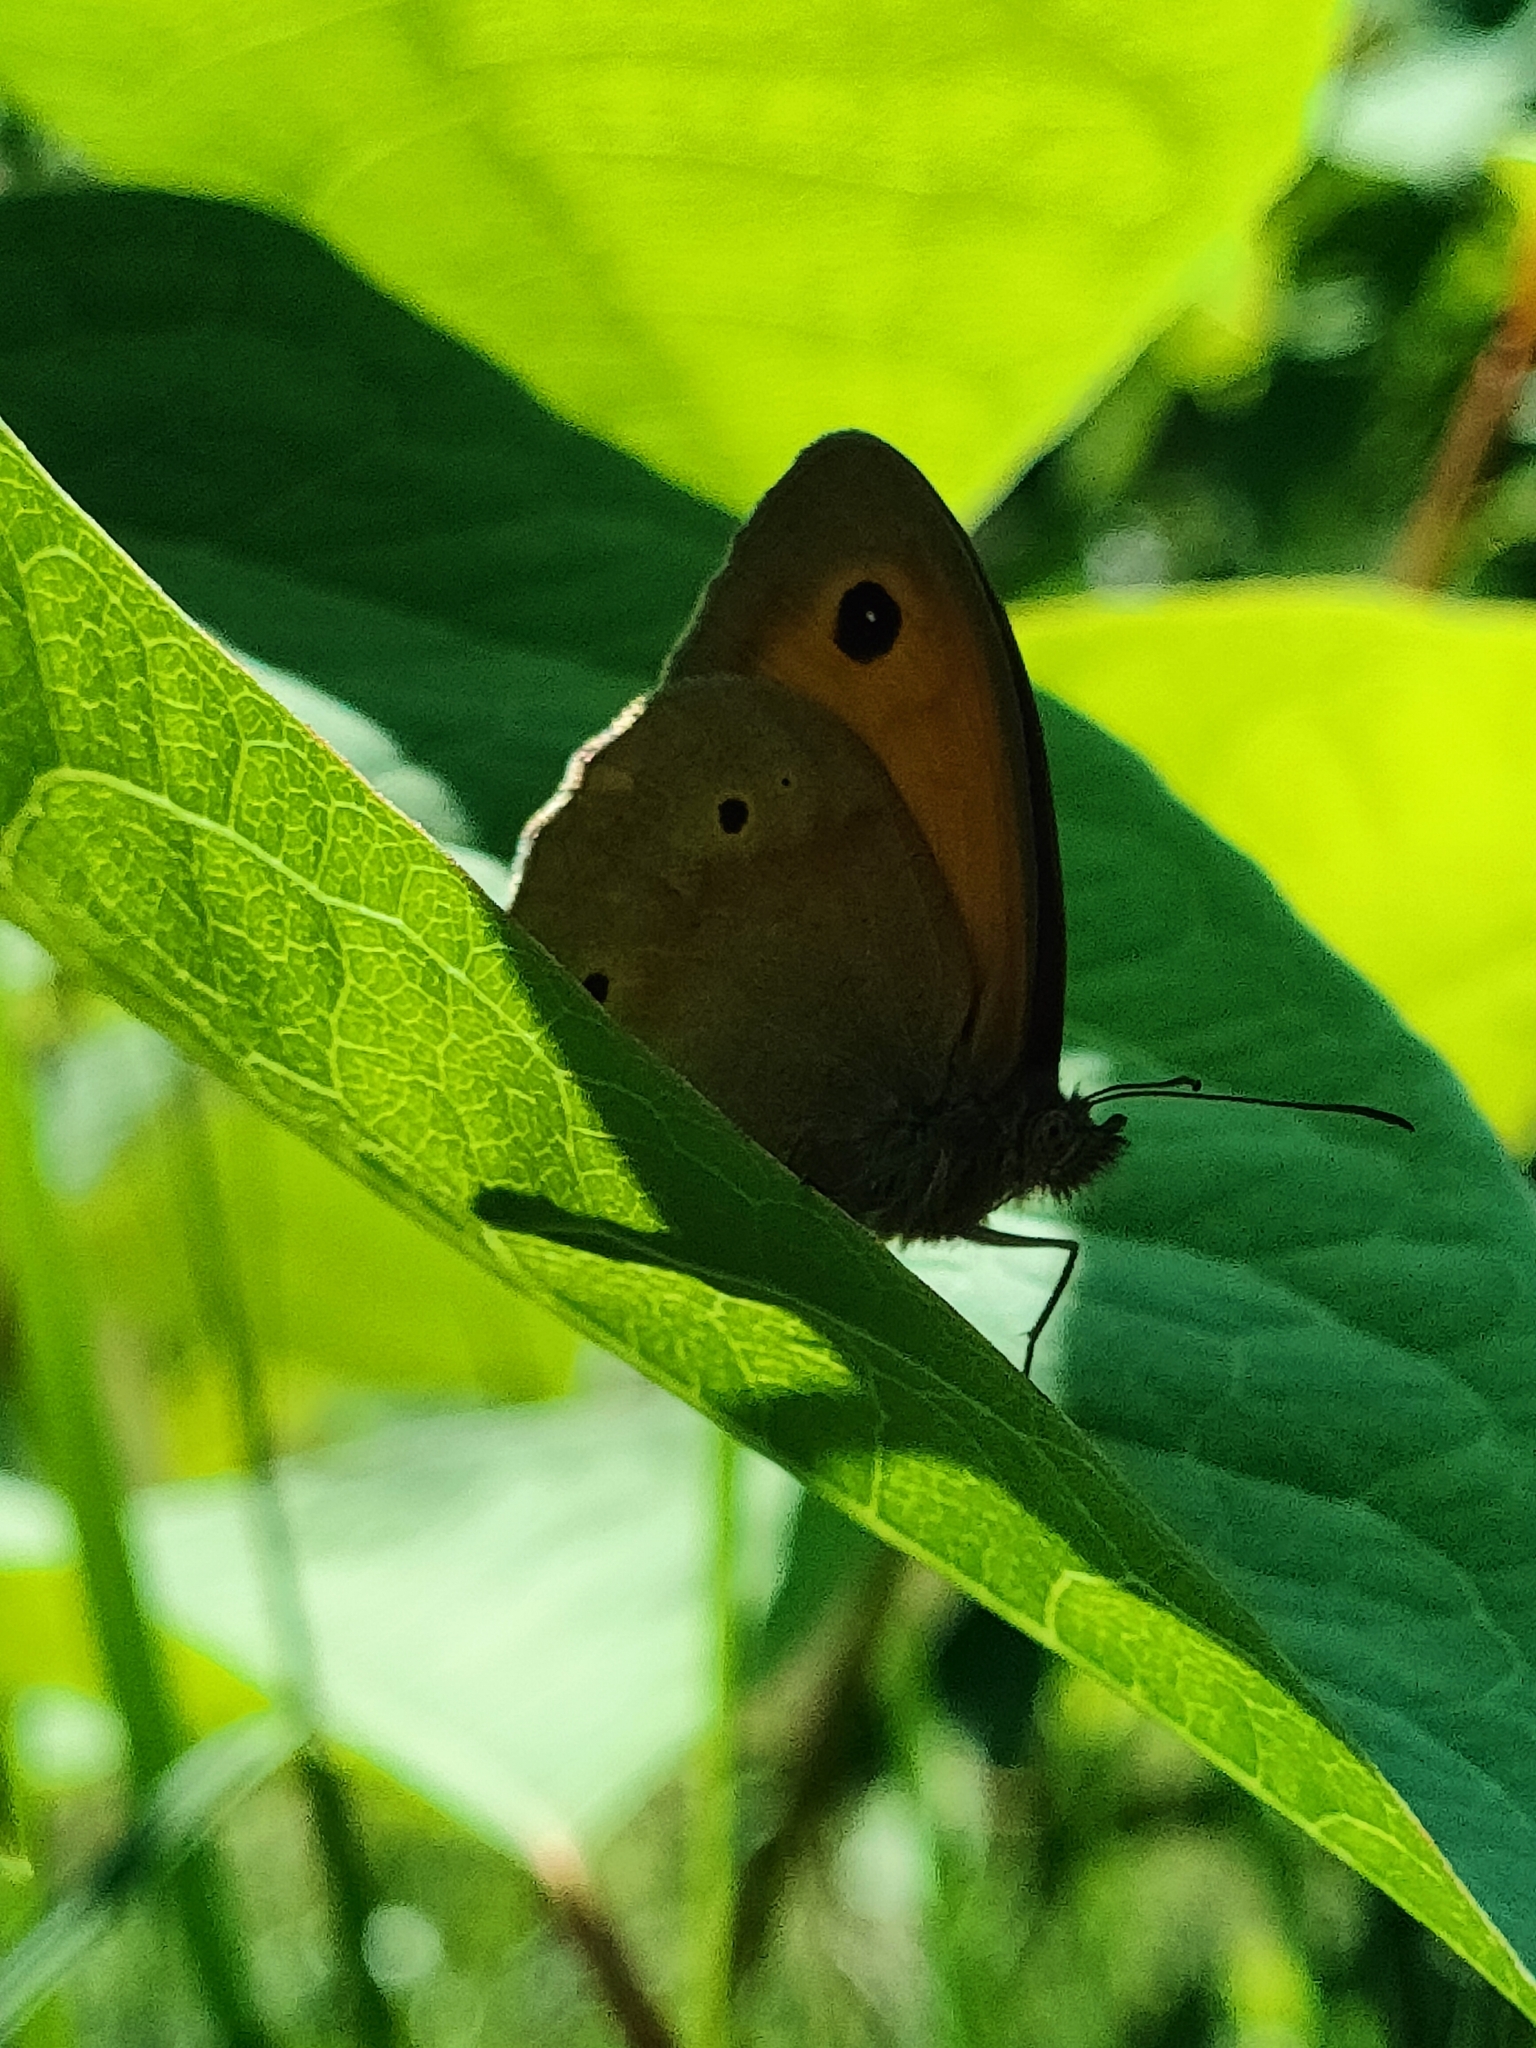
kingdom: Animalia
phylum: Arthropoda
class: Insecta
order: Lepidoptera
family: Nymphalidae
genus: Maniola
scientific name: Maniola jurtina
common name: Meadow brown
